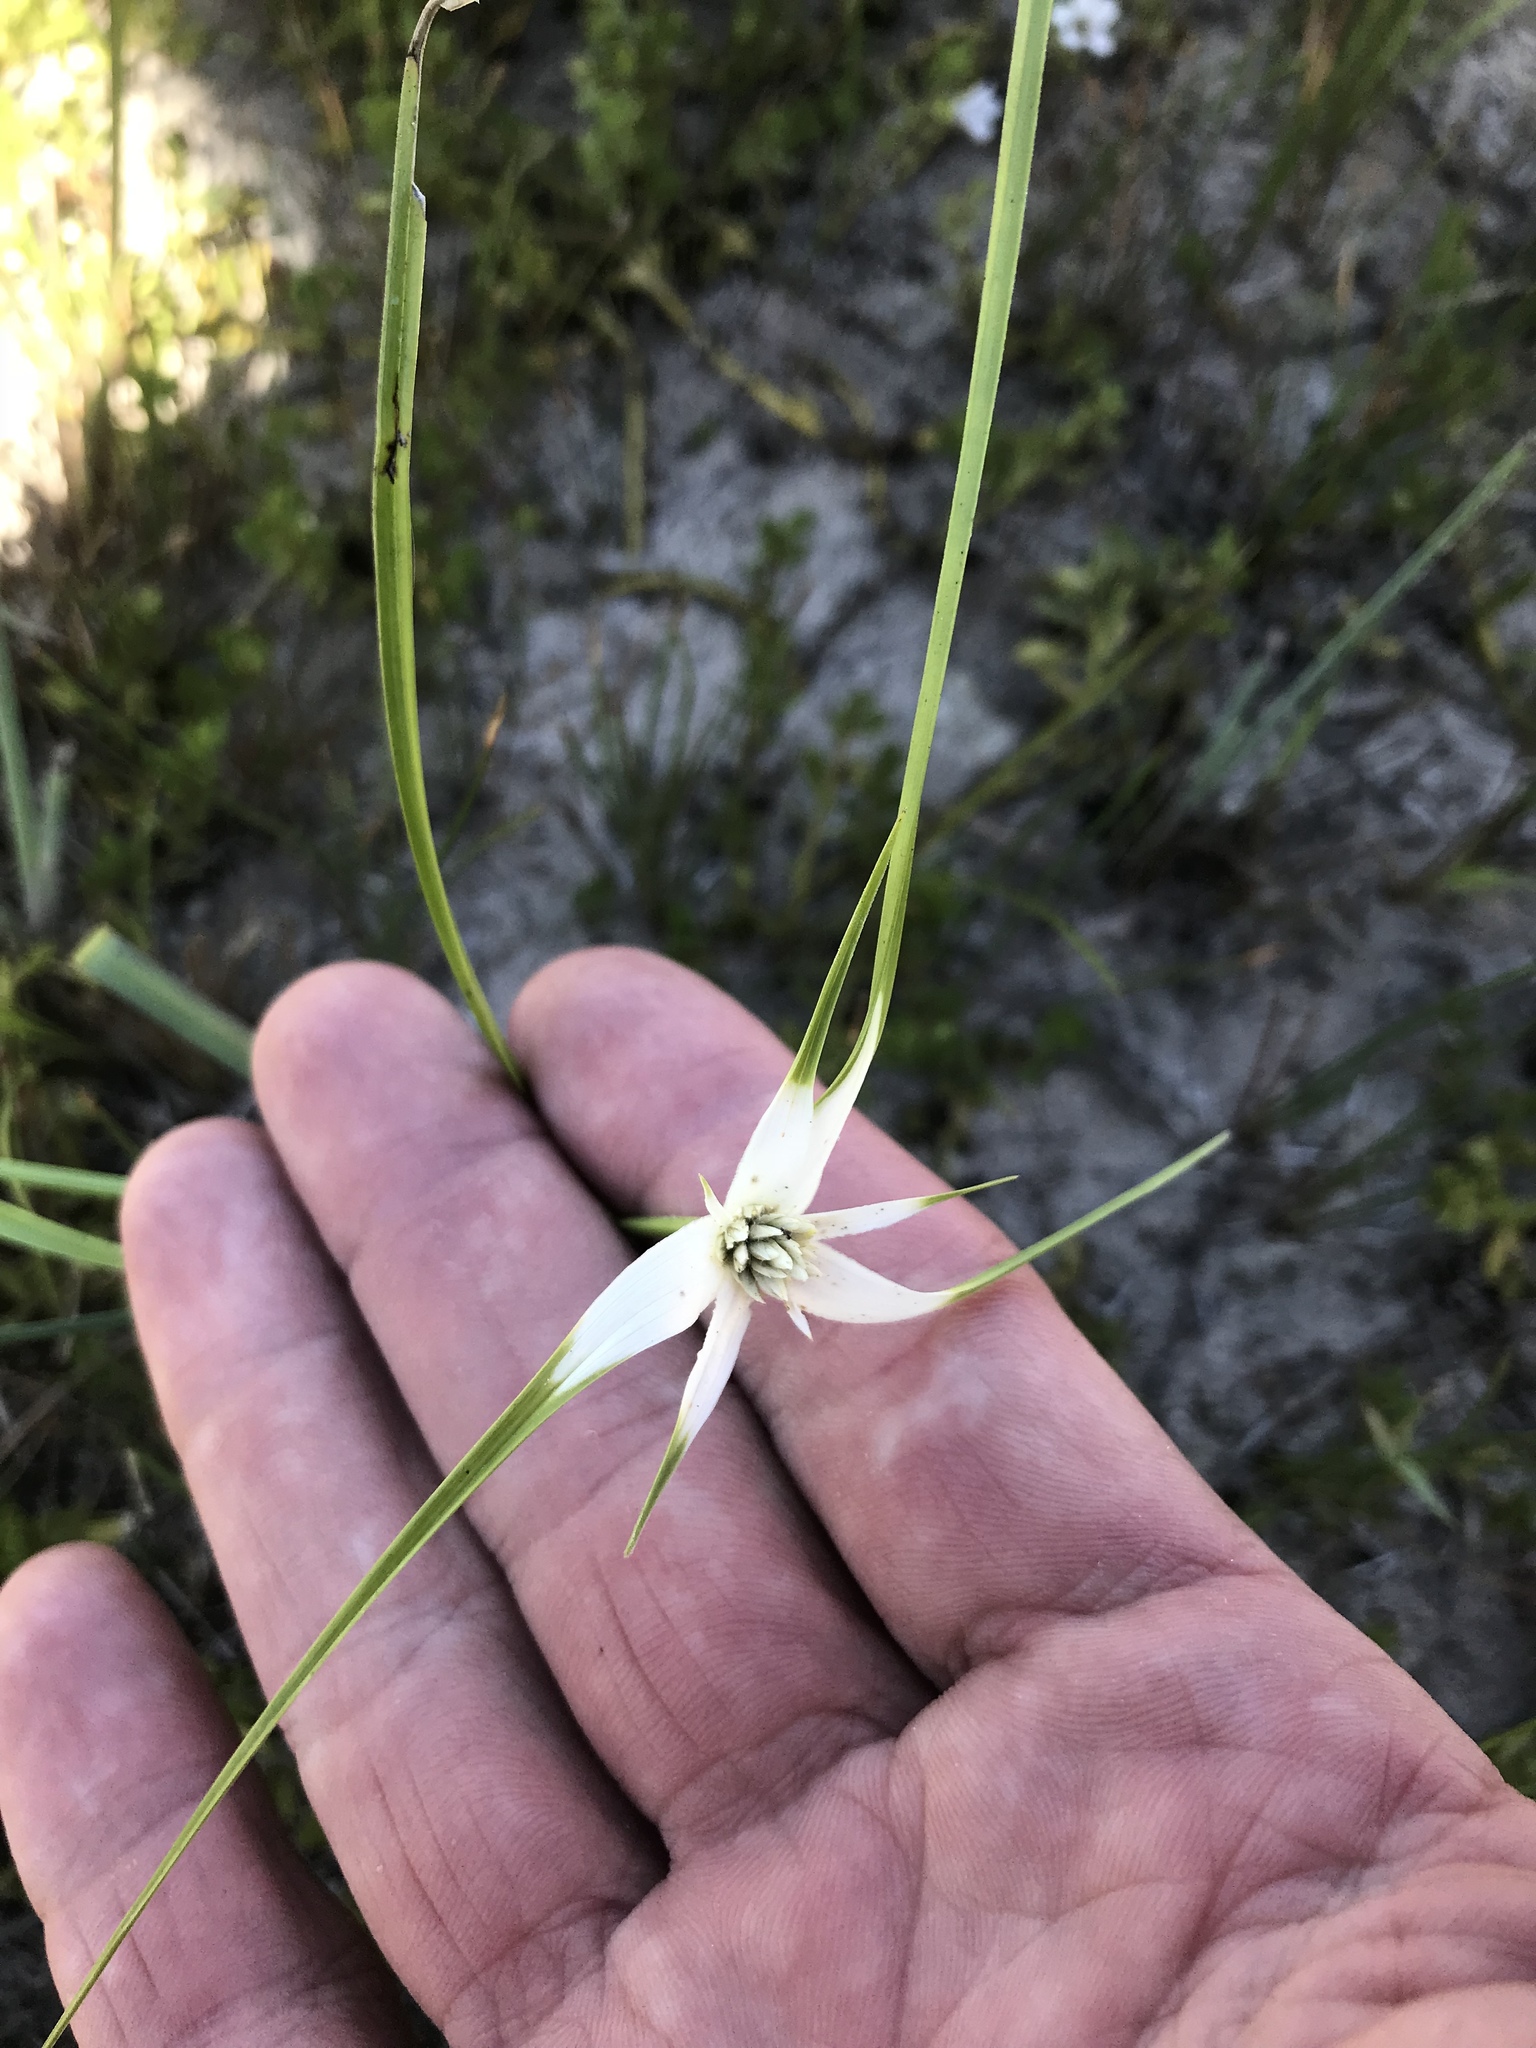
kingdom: Plantae
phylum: Tracheophyta
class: Liliopsida
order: Poales
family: Cyperaceae
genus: Rhynchospora
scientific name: Rhynchospora colorata
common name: Star sedge
